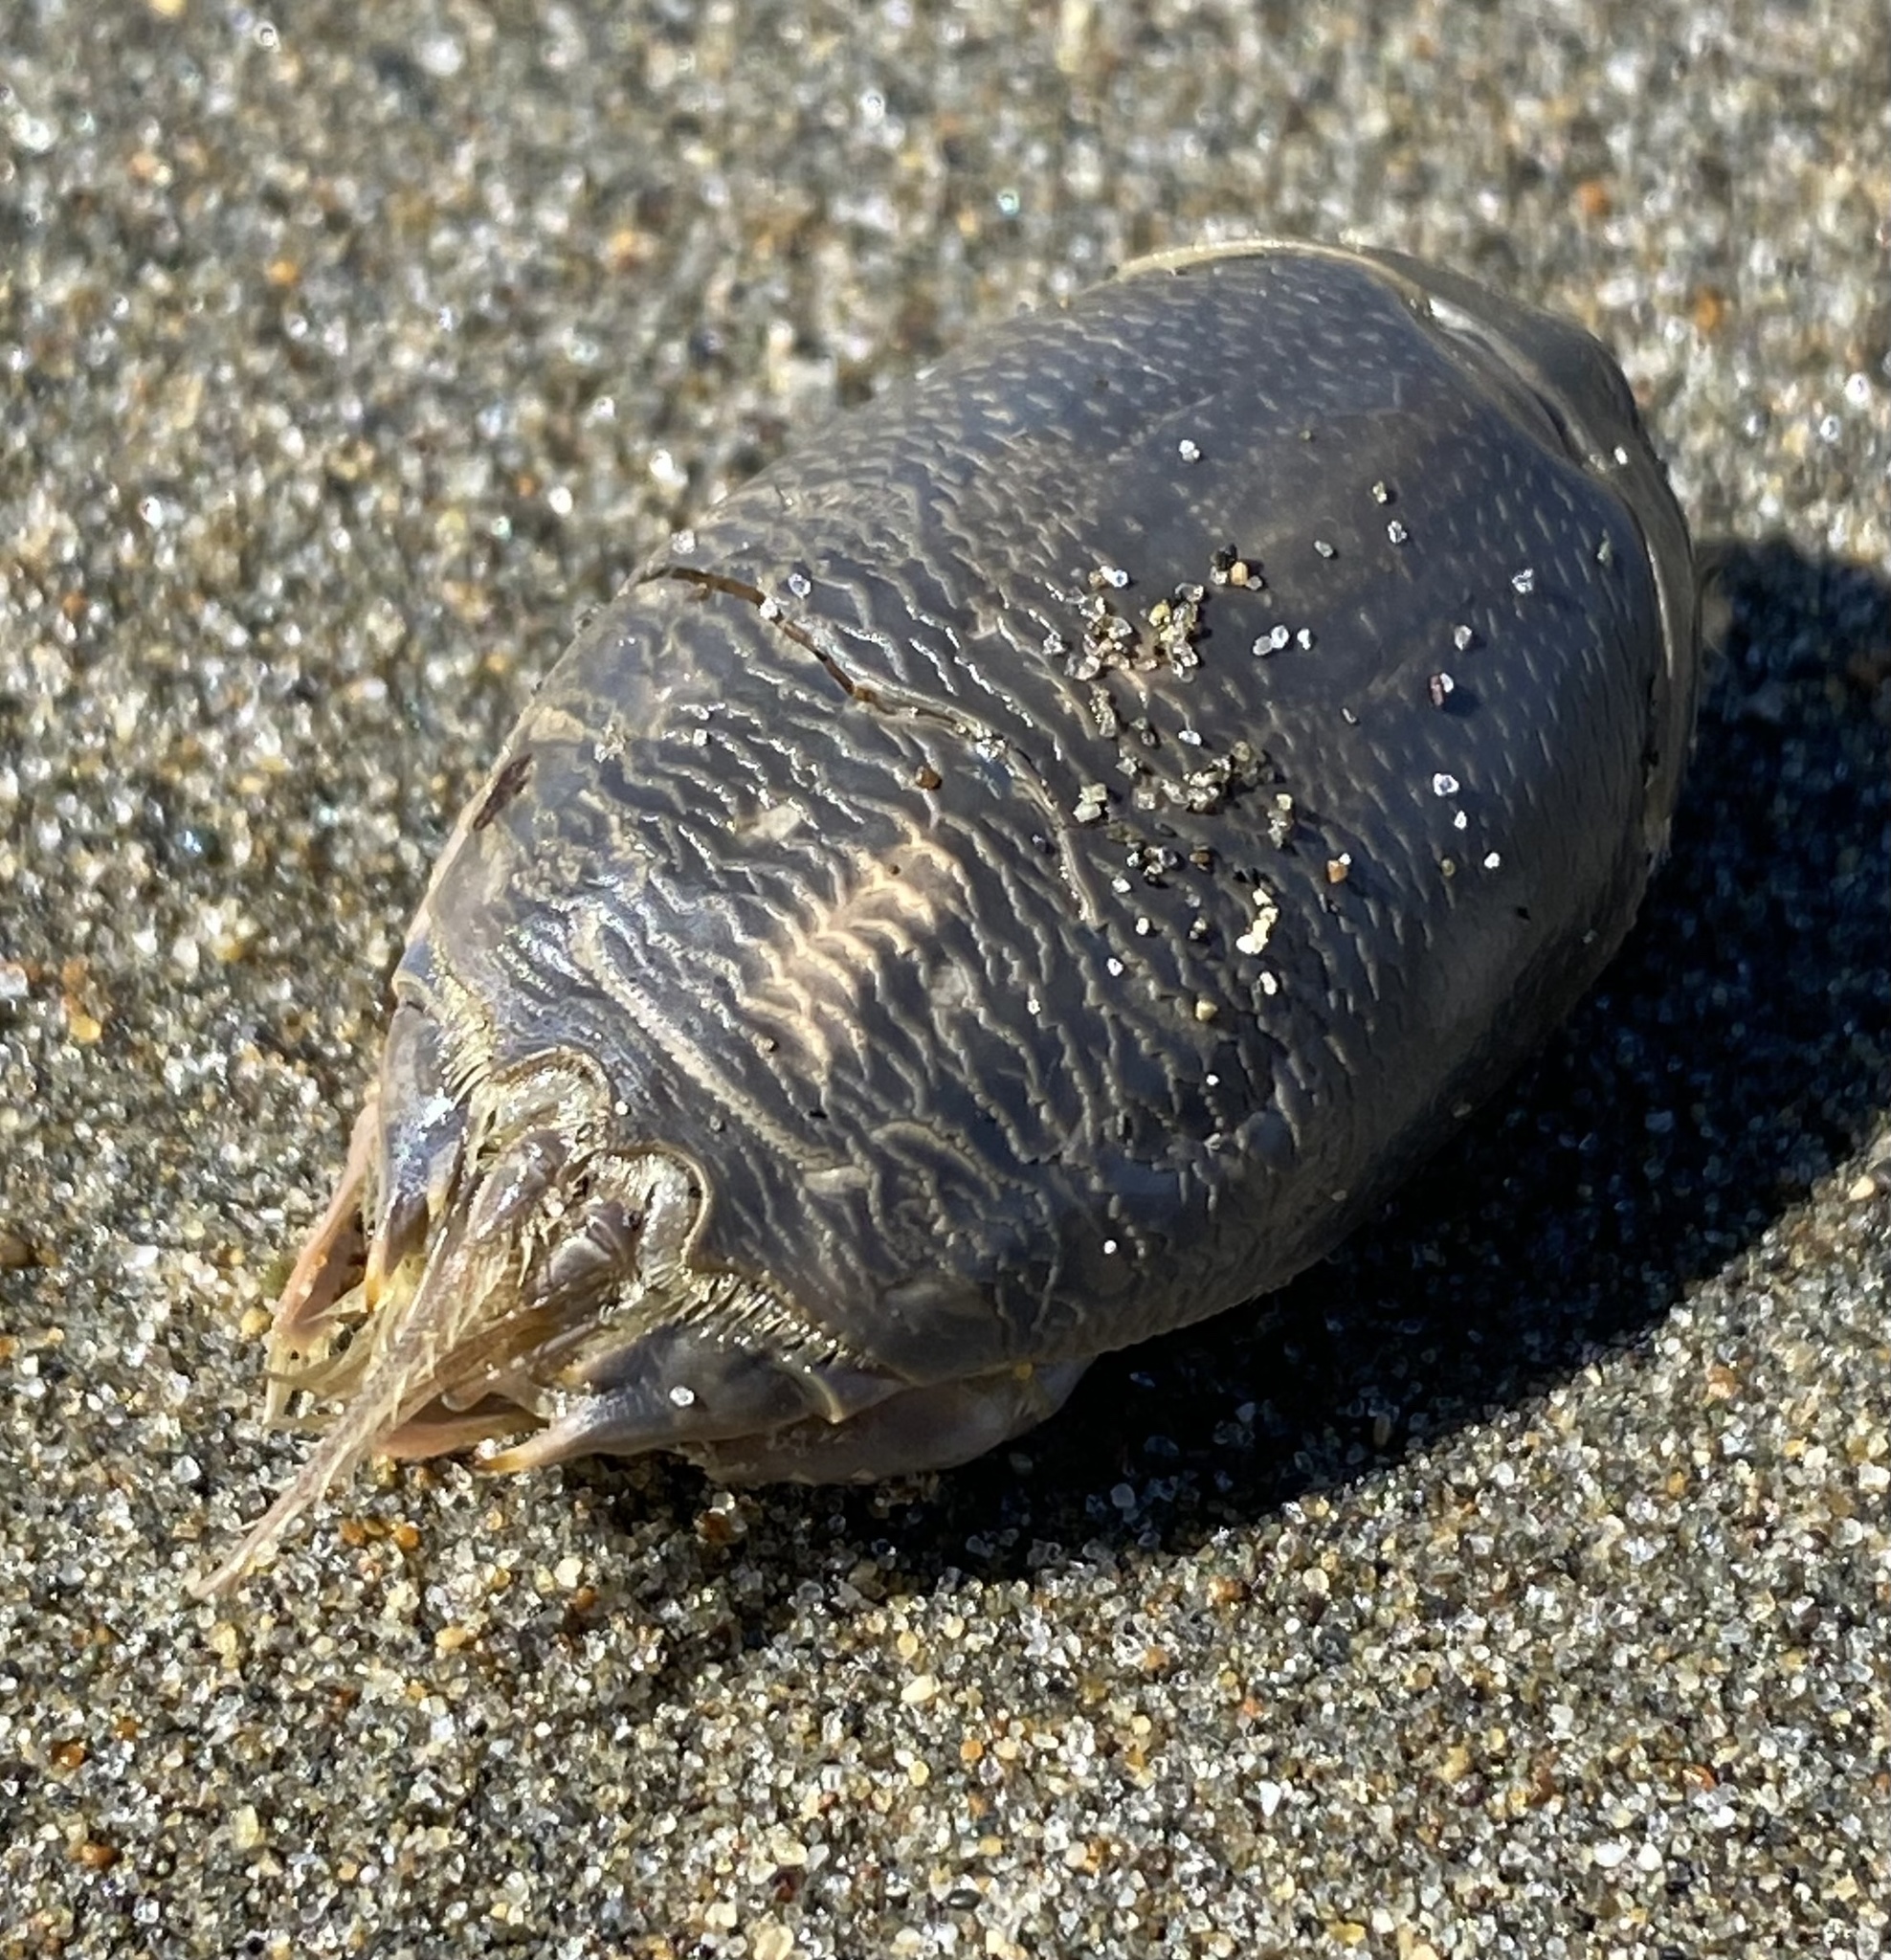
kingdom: Animalia
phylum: Arthropoda
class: Malacostraca
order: Decapoda
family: Hippidae
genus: Emerita
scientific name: Emerita analoga
